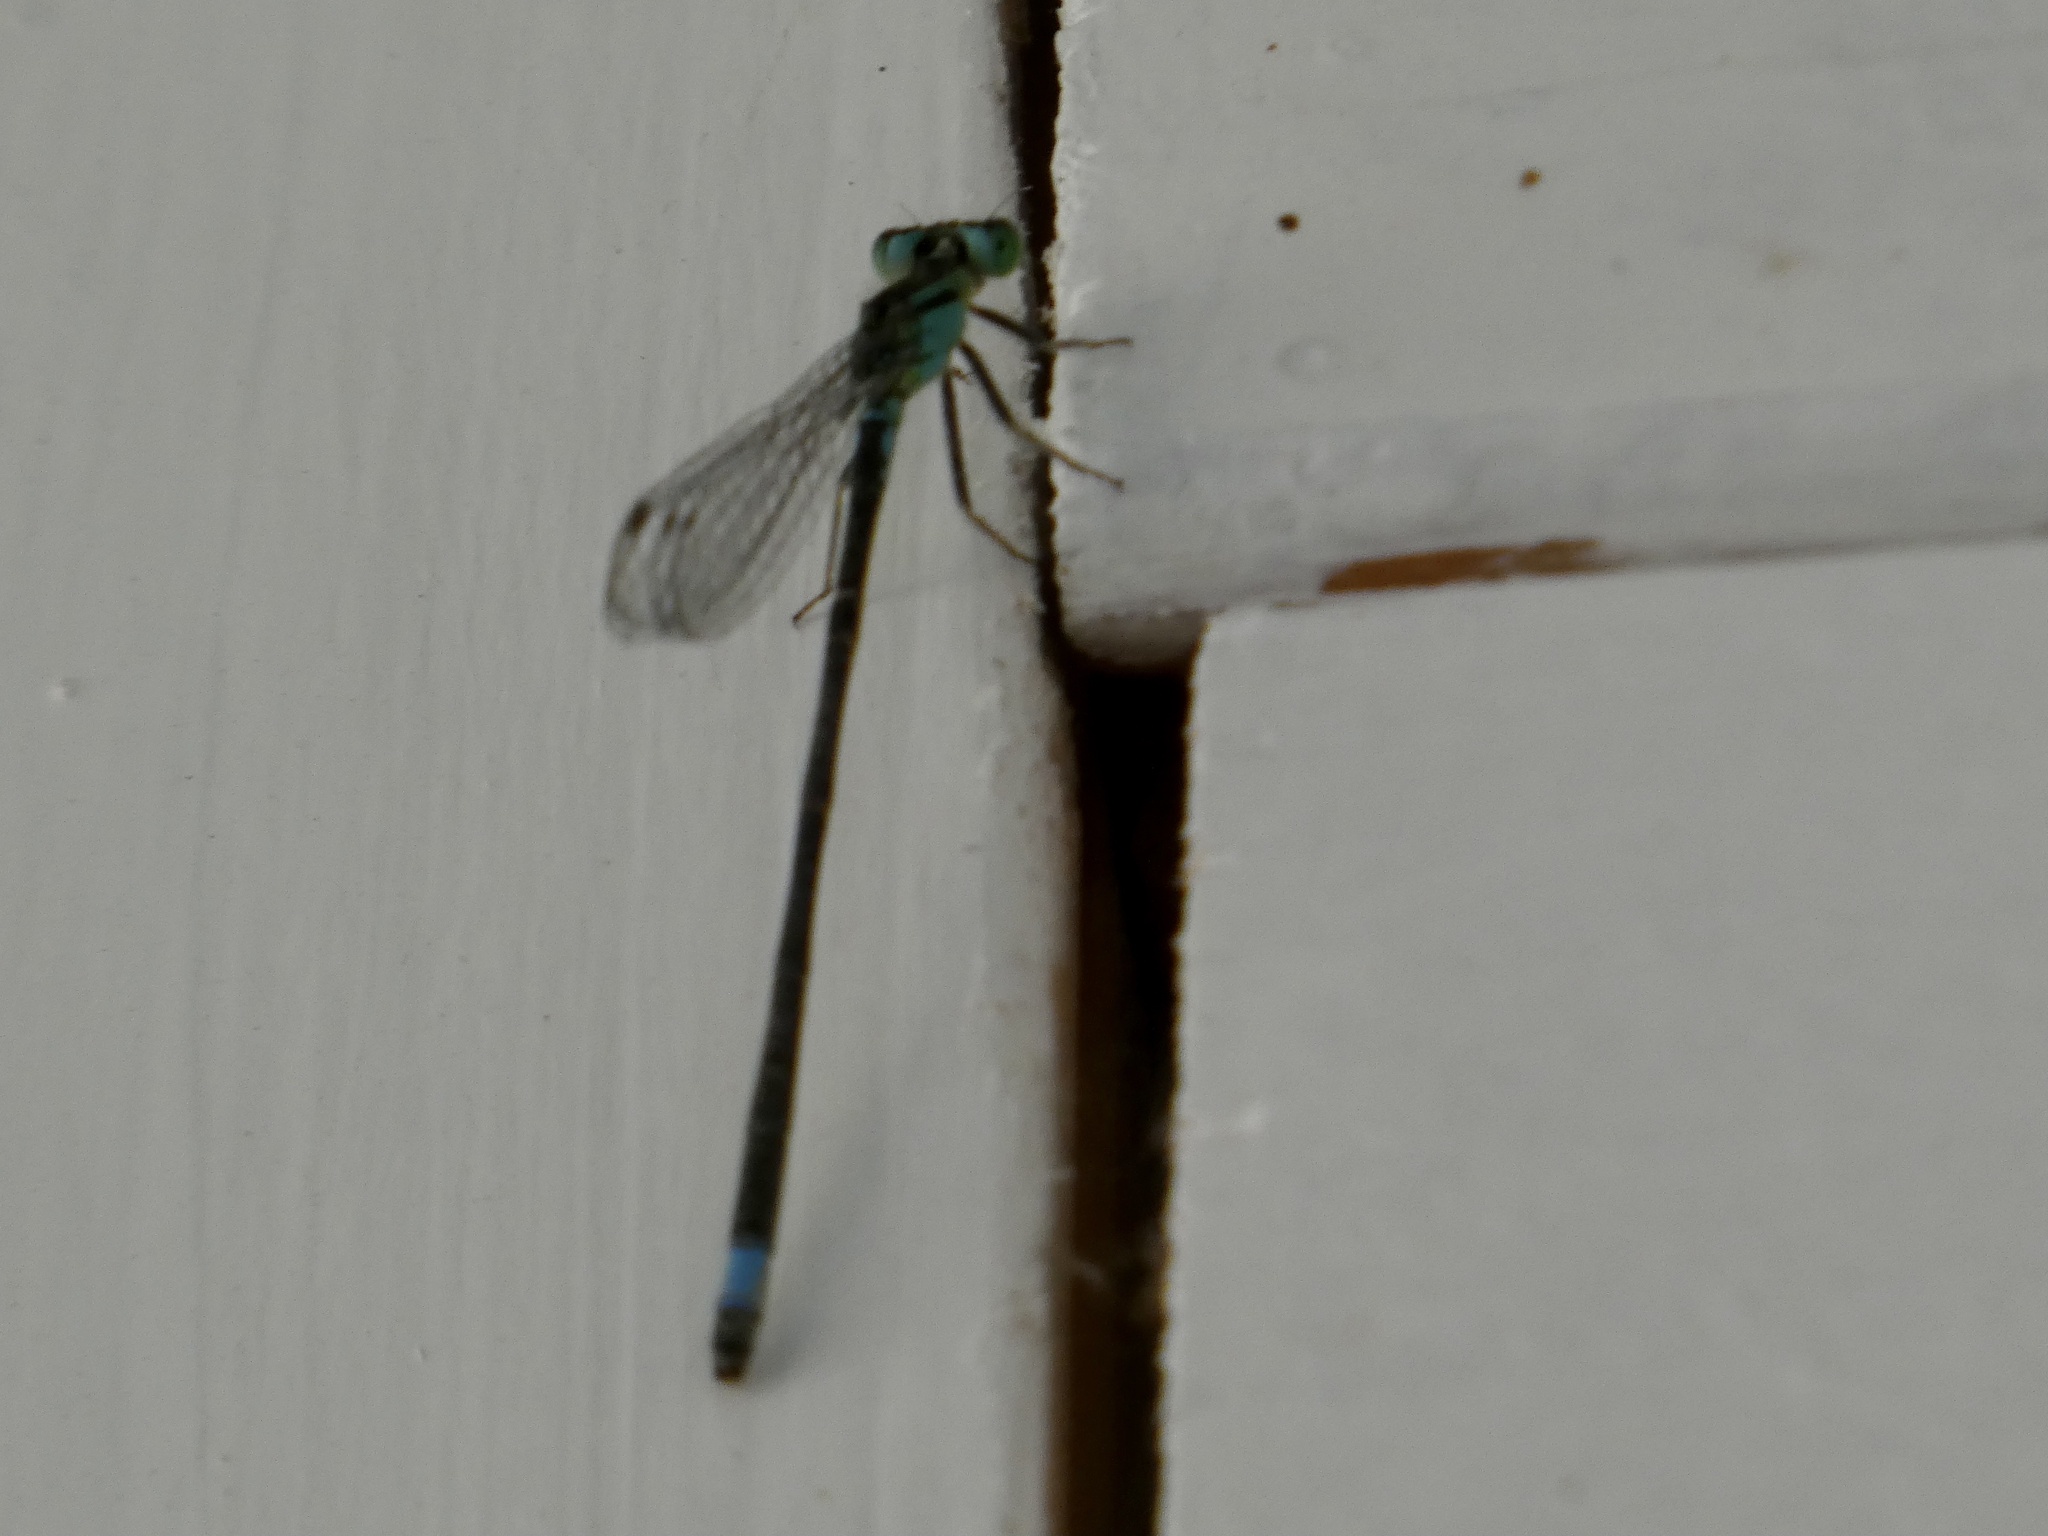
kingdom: Animalia
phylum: Arthropoda
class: Insecta
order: Odonata
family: Coenagrionidae
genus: Ischnura
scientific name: Ischnura elegans
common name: Blue-tailed damselfly
